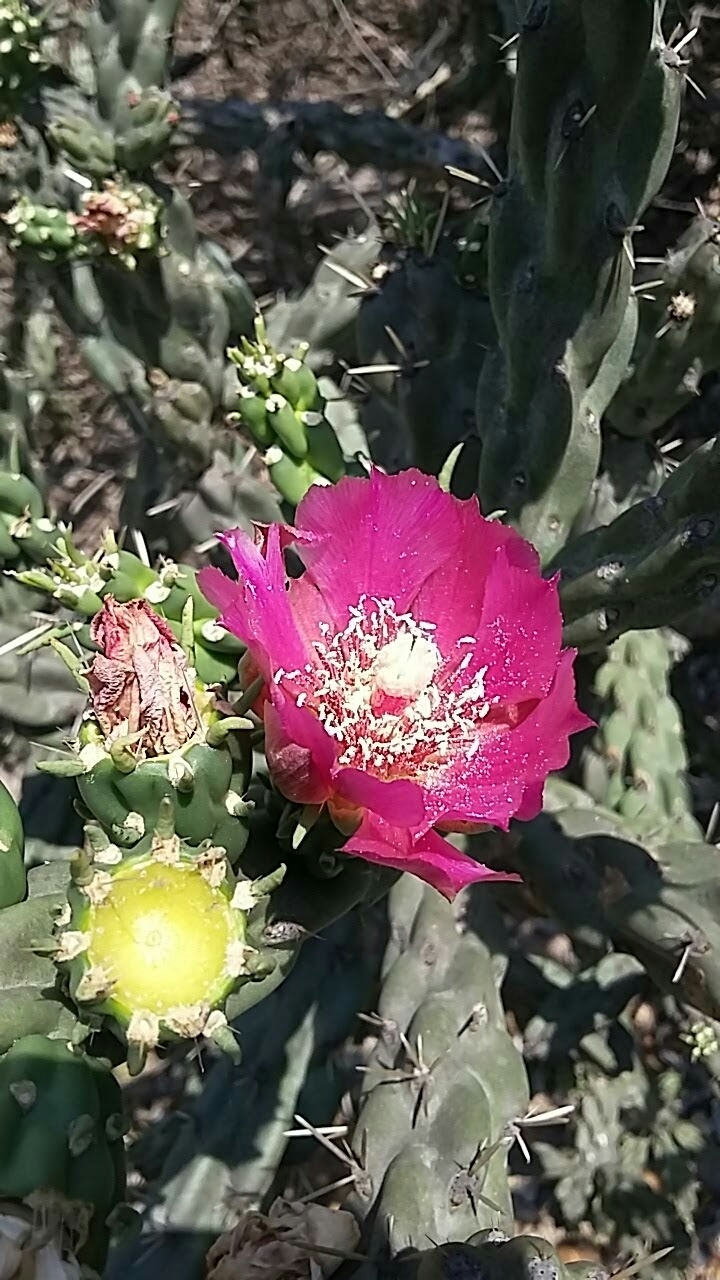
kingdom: Plantae
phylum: Tracheophyta
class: Magnoliopsida
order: Caryophyllales
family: Cactaceae
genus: Cylindropuntia
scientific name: Cylindropuntia imbricata
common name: Candelabrum cactus
